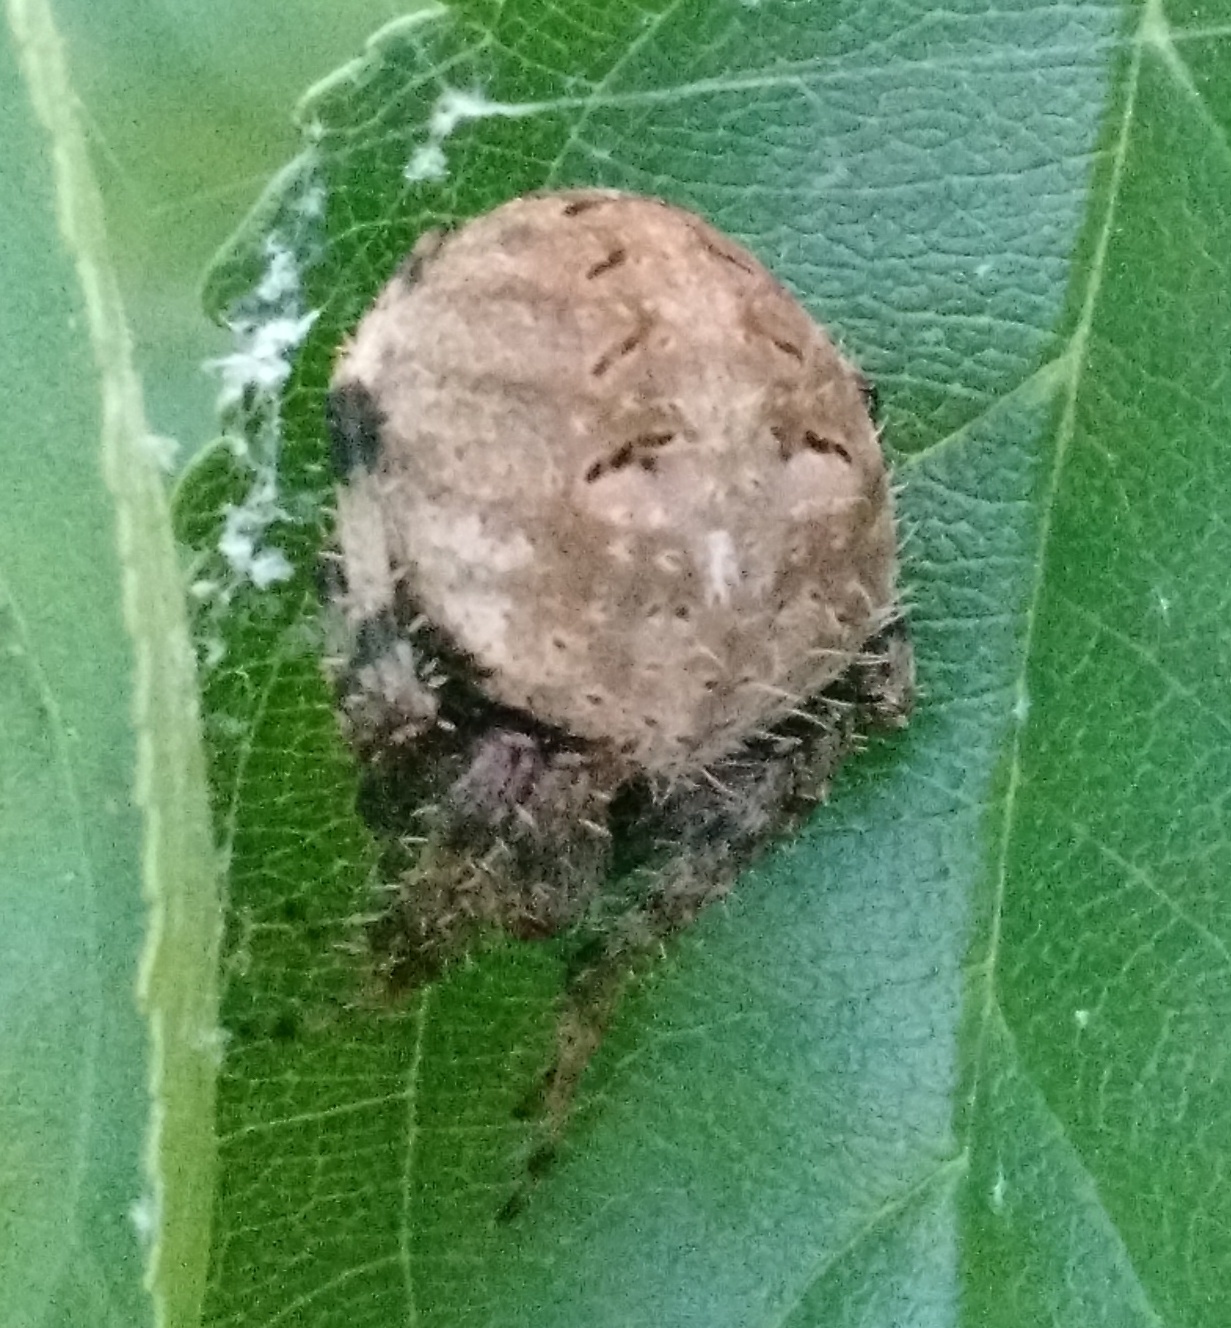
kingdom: Animalia
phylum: Arthropoda
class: Arachnida
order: Araneae
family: Araneidae
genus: Neoscona
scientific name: Neoscona crucifera
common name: Spotted orbweaver
